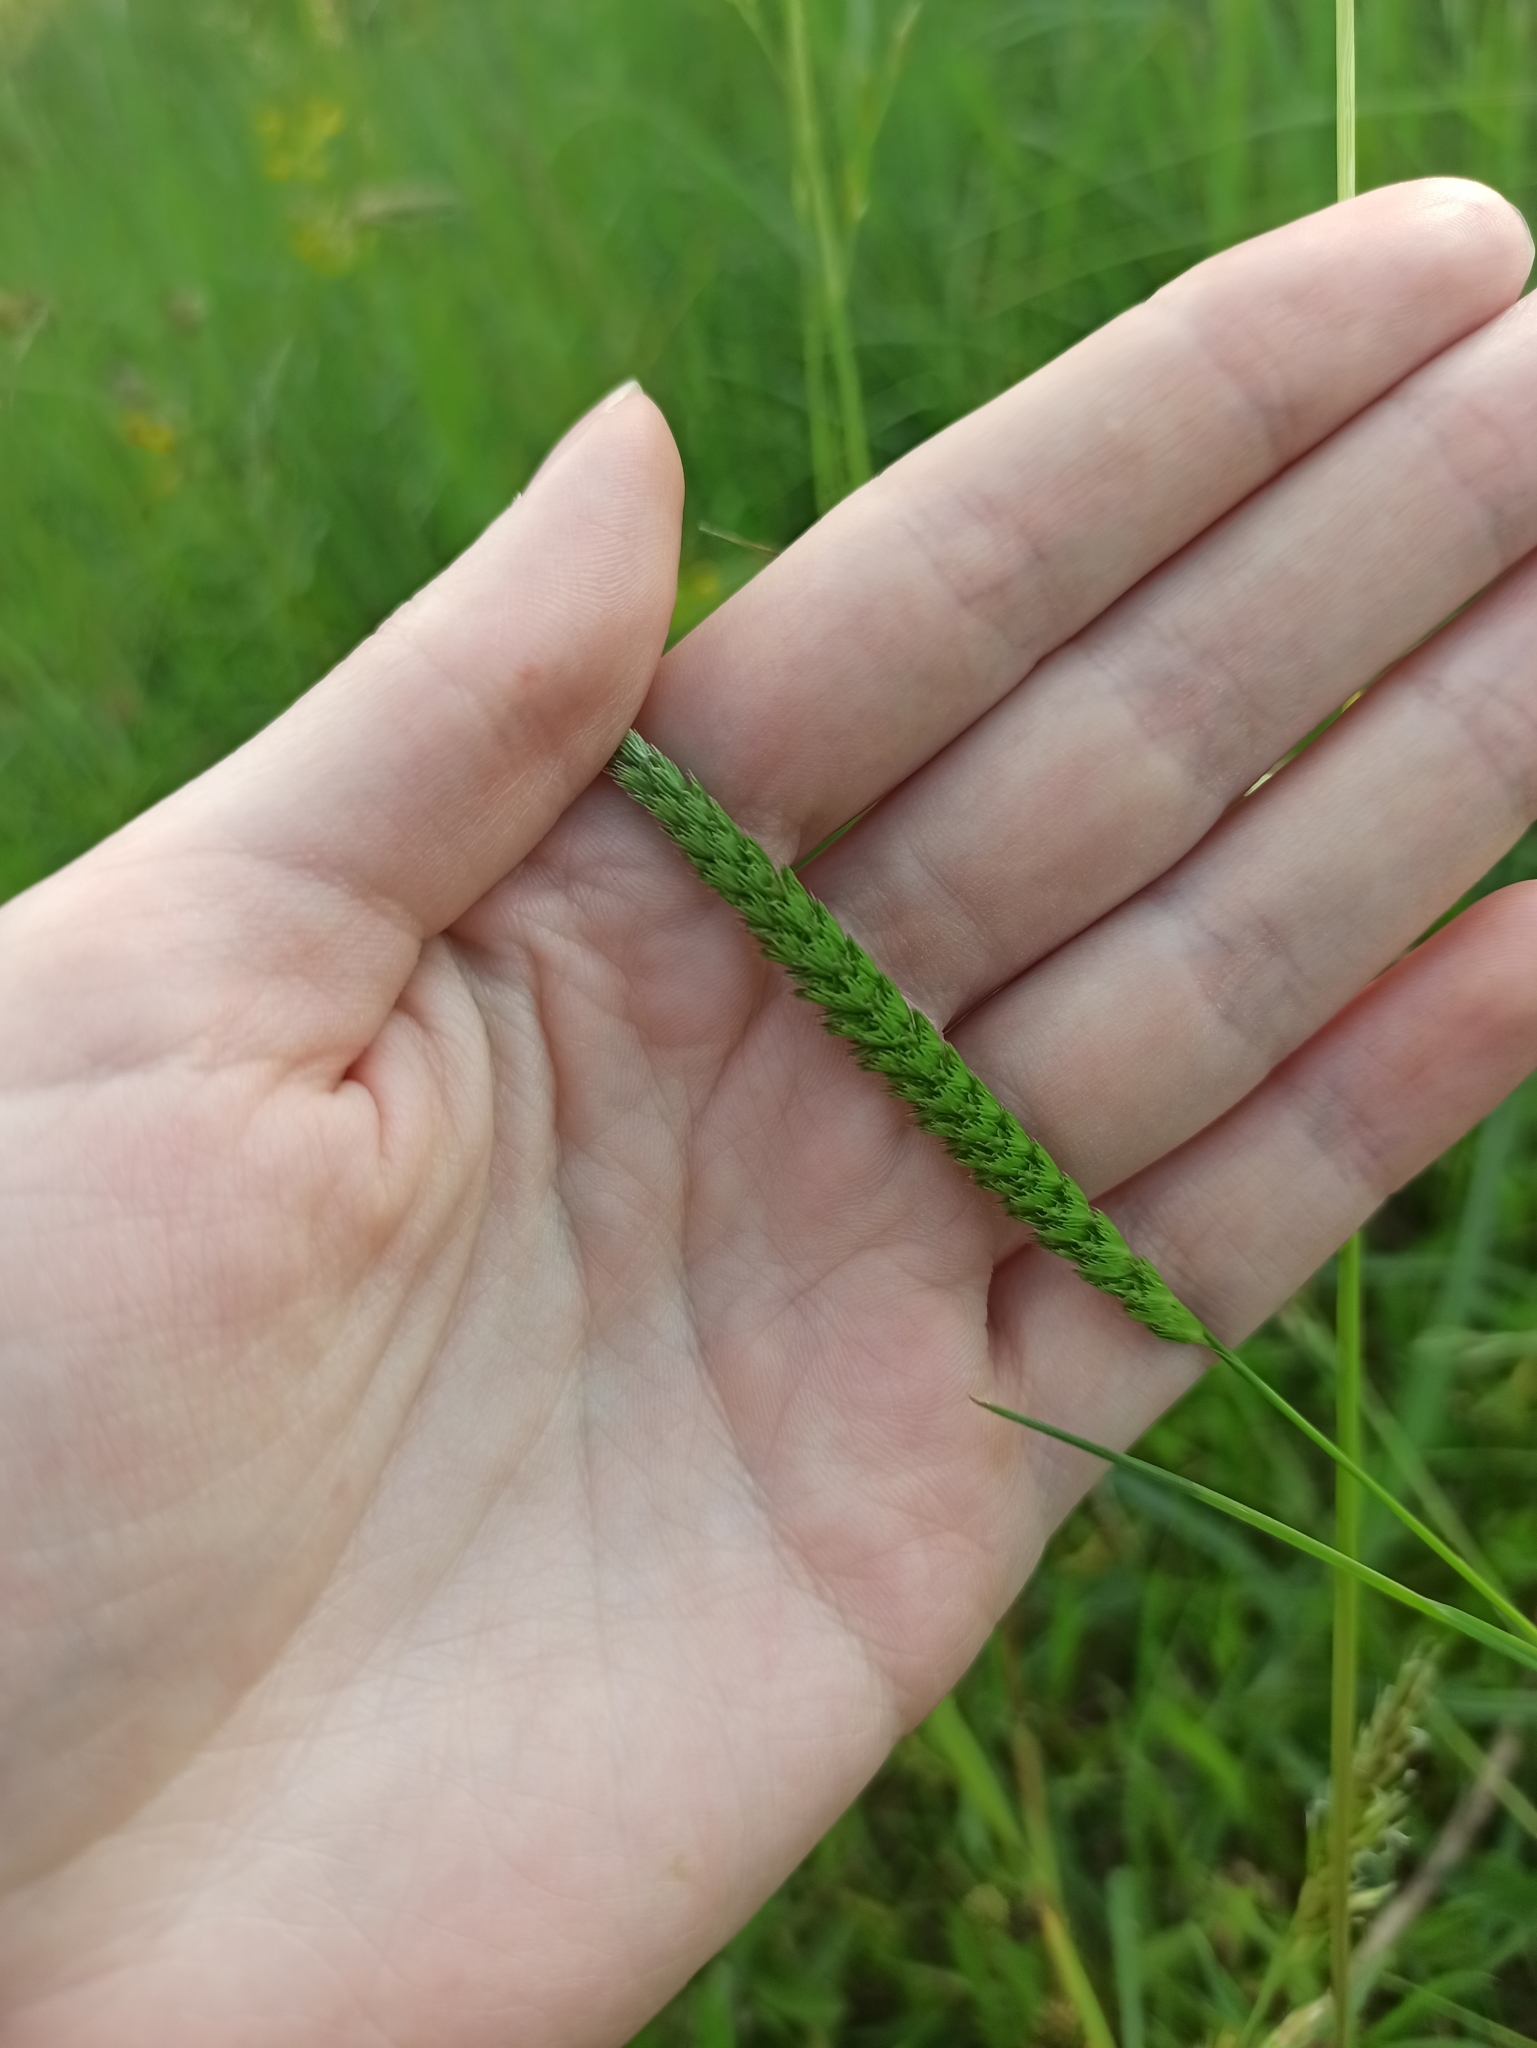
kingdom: Plantae
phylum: Tracheophyta
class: Liliopsida
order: Poales
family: Poaceae
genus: Cynosurus
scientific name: Cynosurus cristatus
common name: Crested dog's-tail
